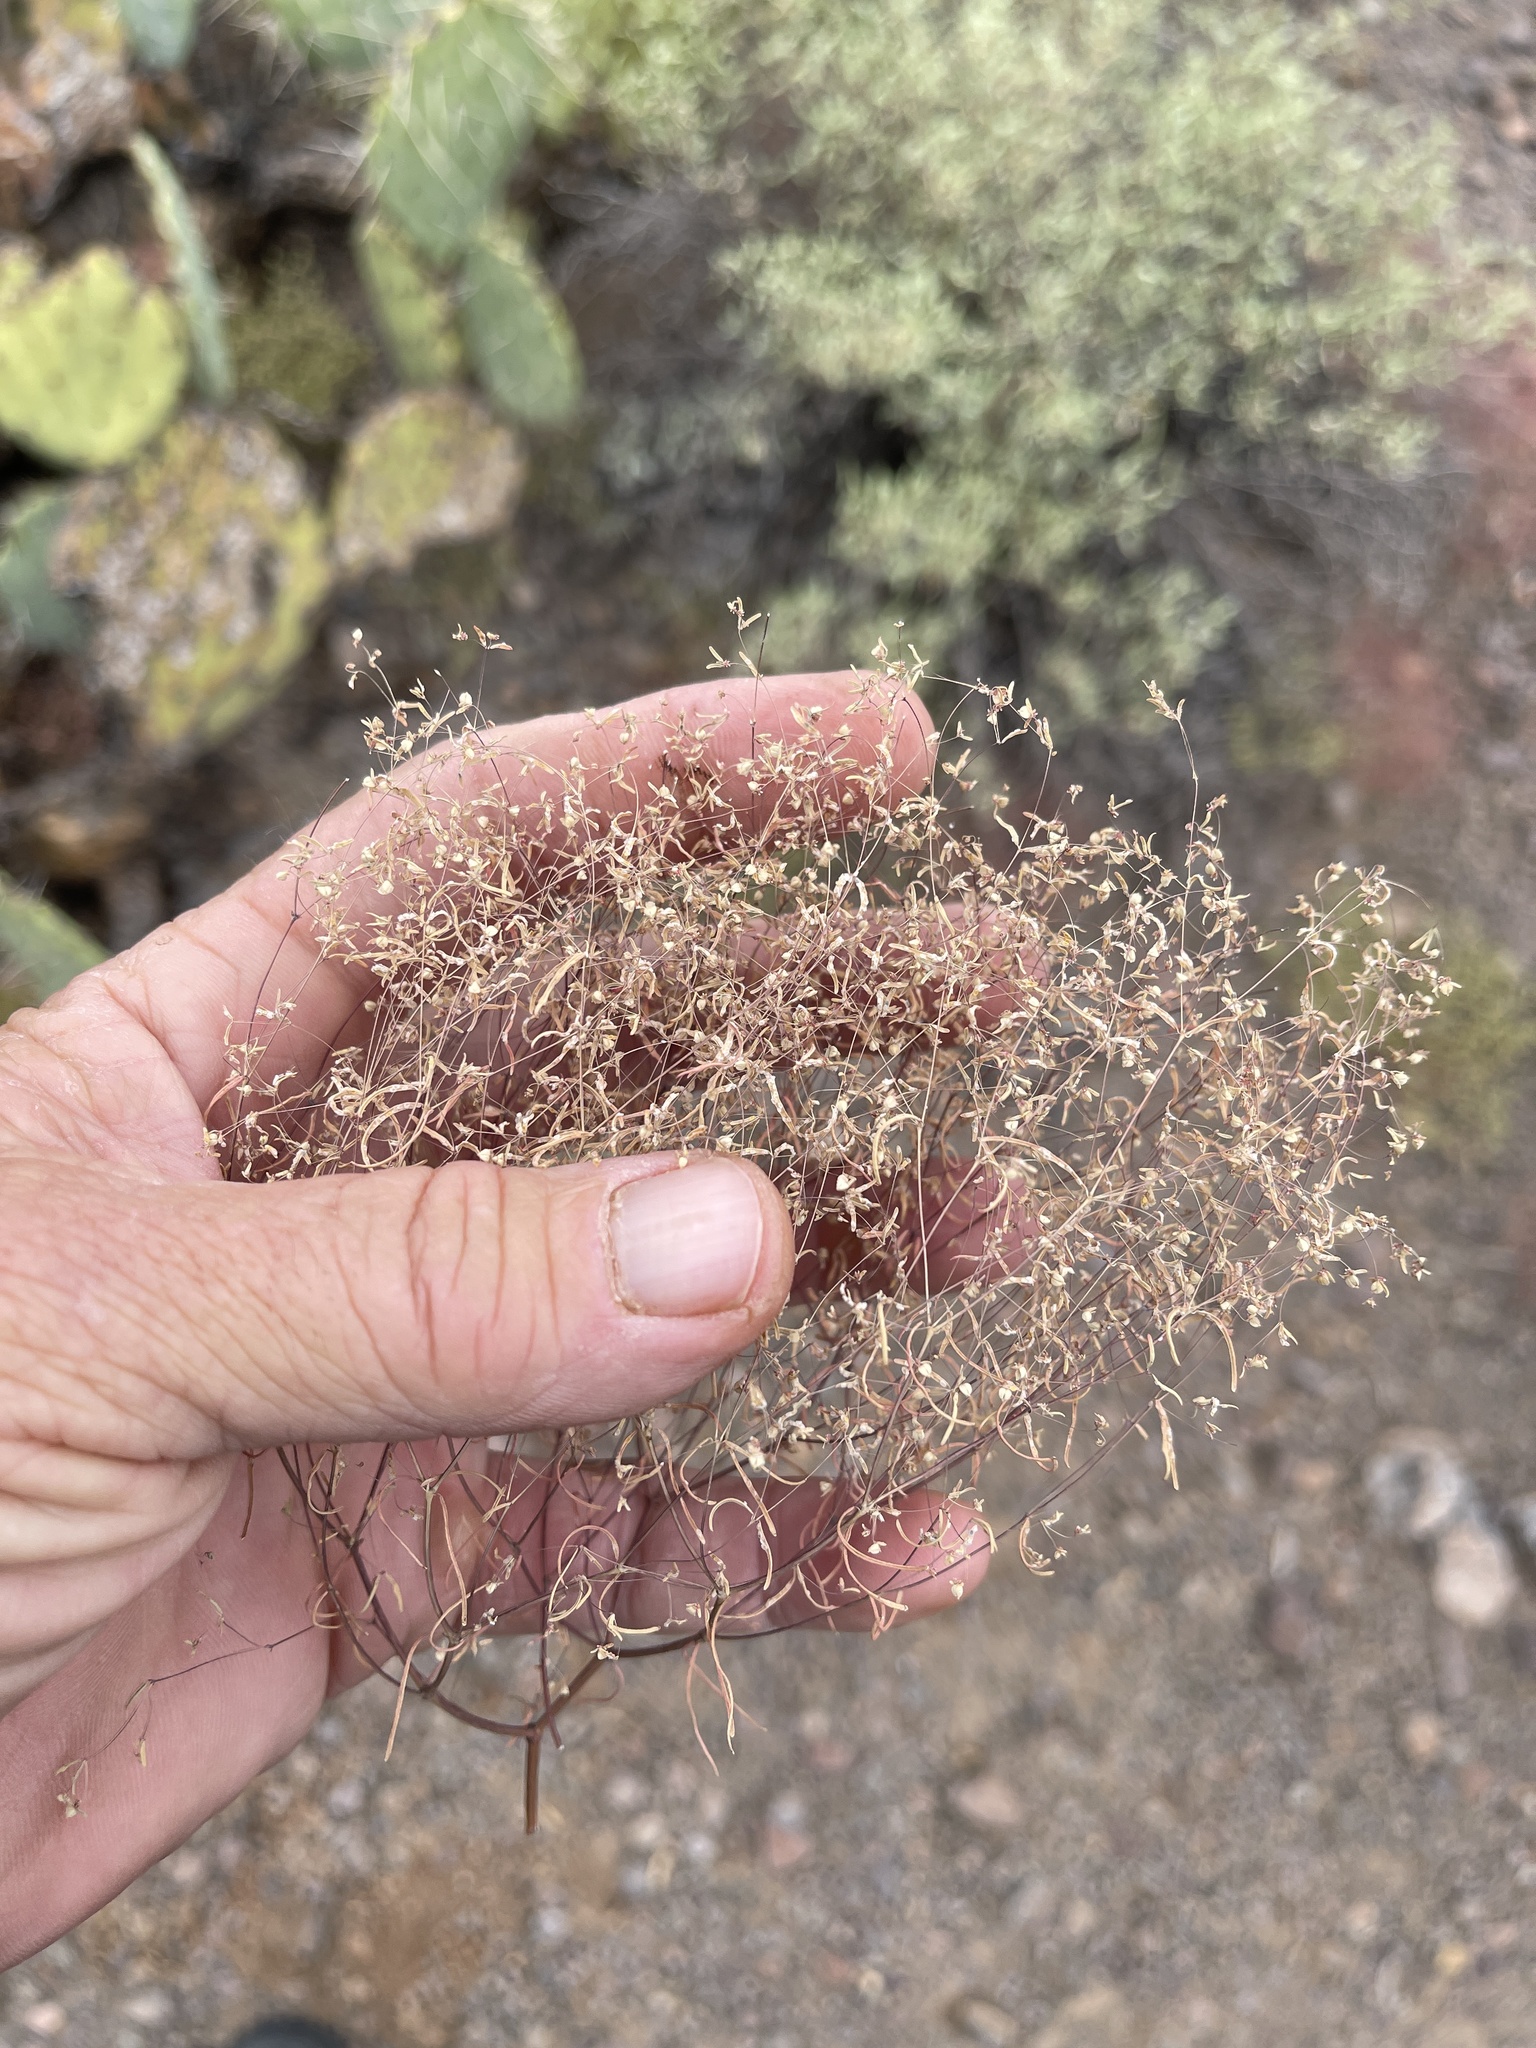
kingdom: Plantae
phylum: Tracheophyta
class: Magnoliopsida
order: Malpighiales
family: Euphorbiaceae
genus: Euphorbia
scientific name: Euphorbia gracillima
